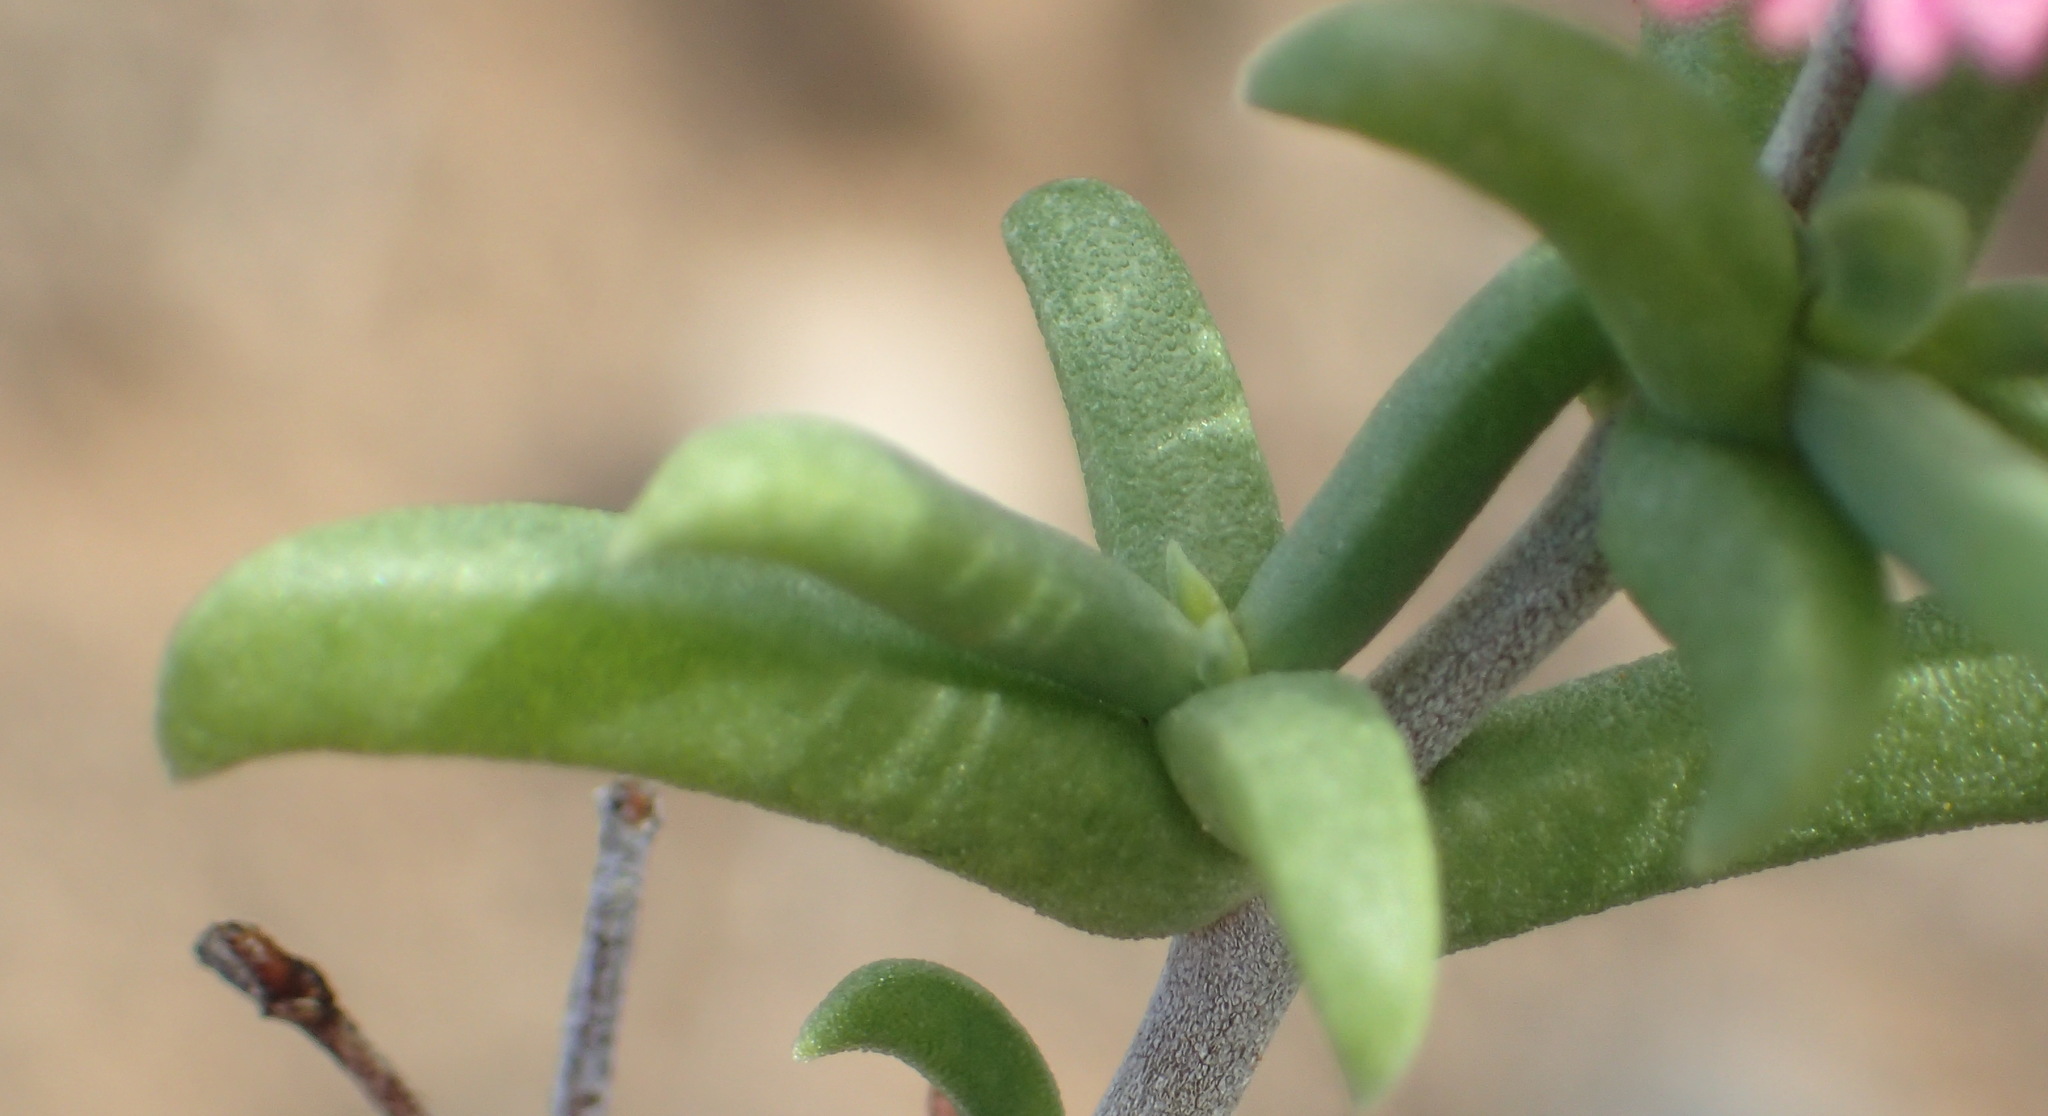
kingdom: Plantae
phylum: Tracheophyta
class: Magnoliopsida
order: Caryophyllales
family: Aizoaceae
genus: Mestoklema
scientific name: Mestoklema illepidum
